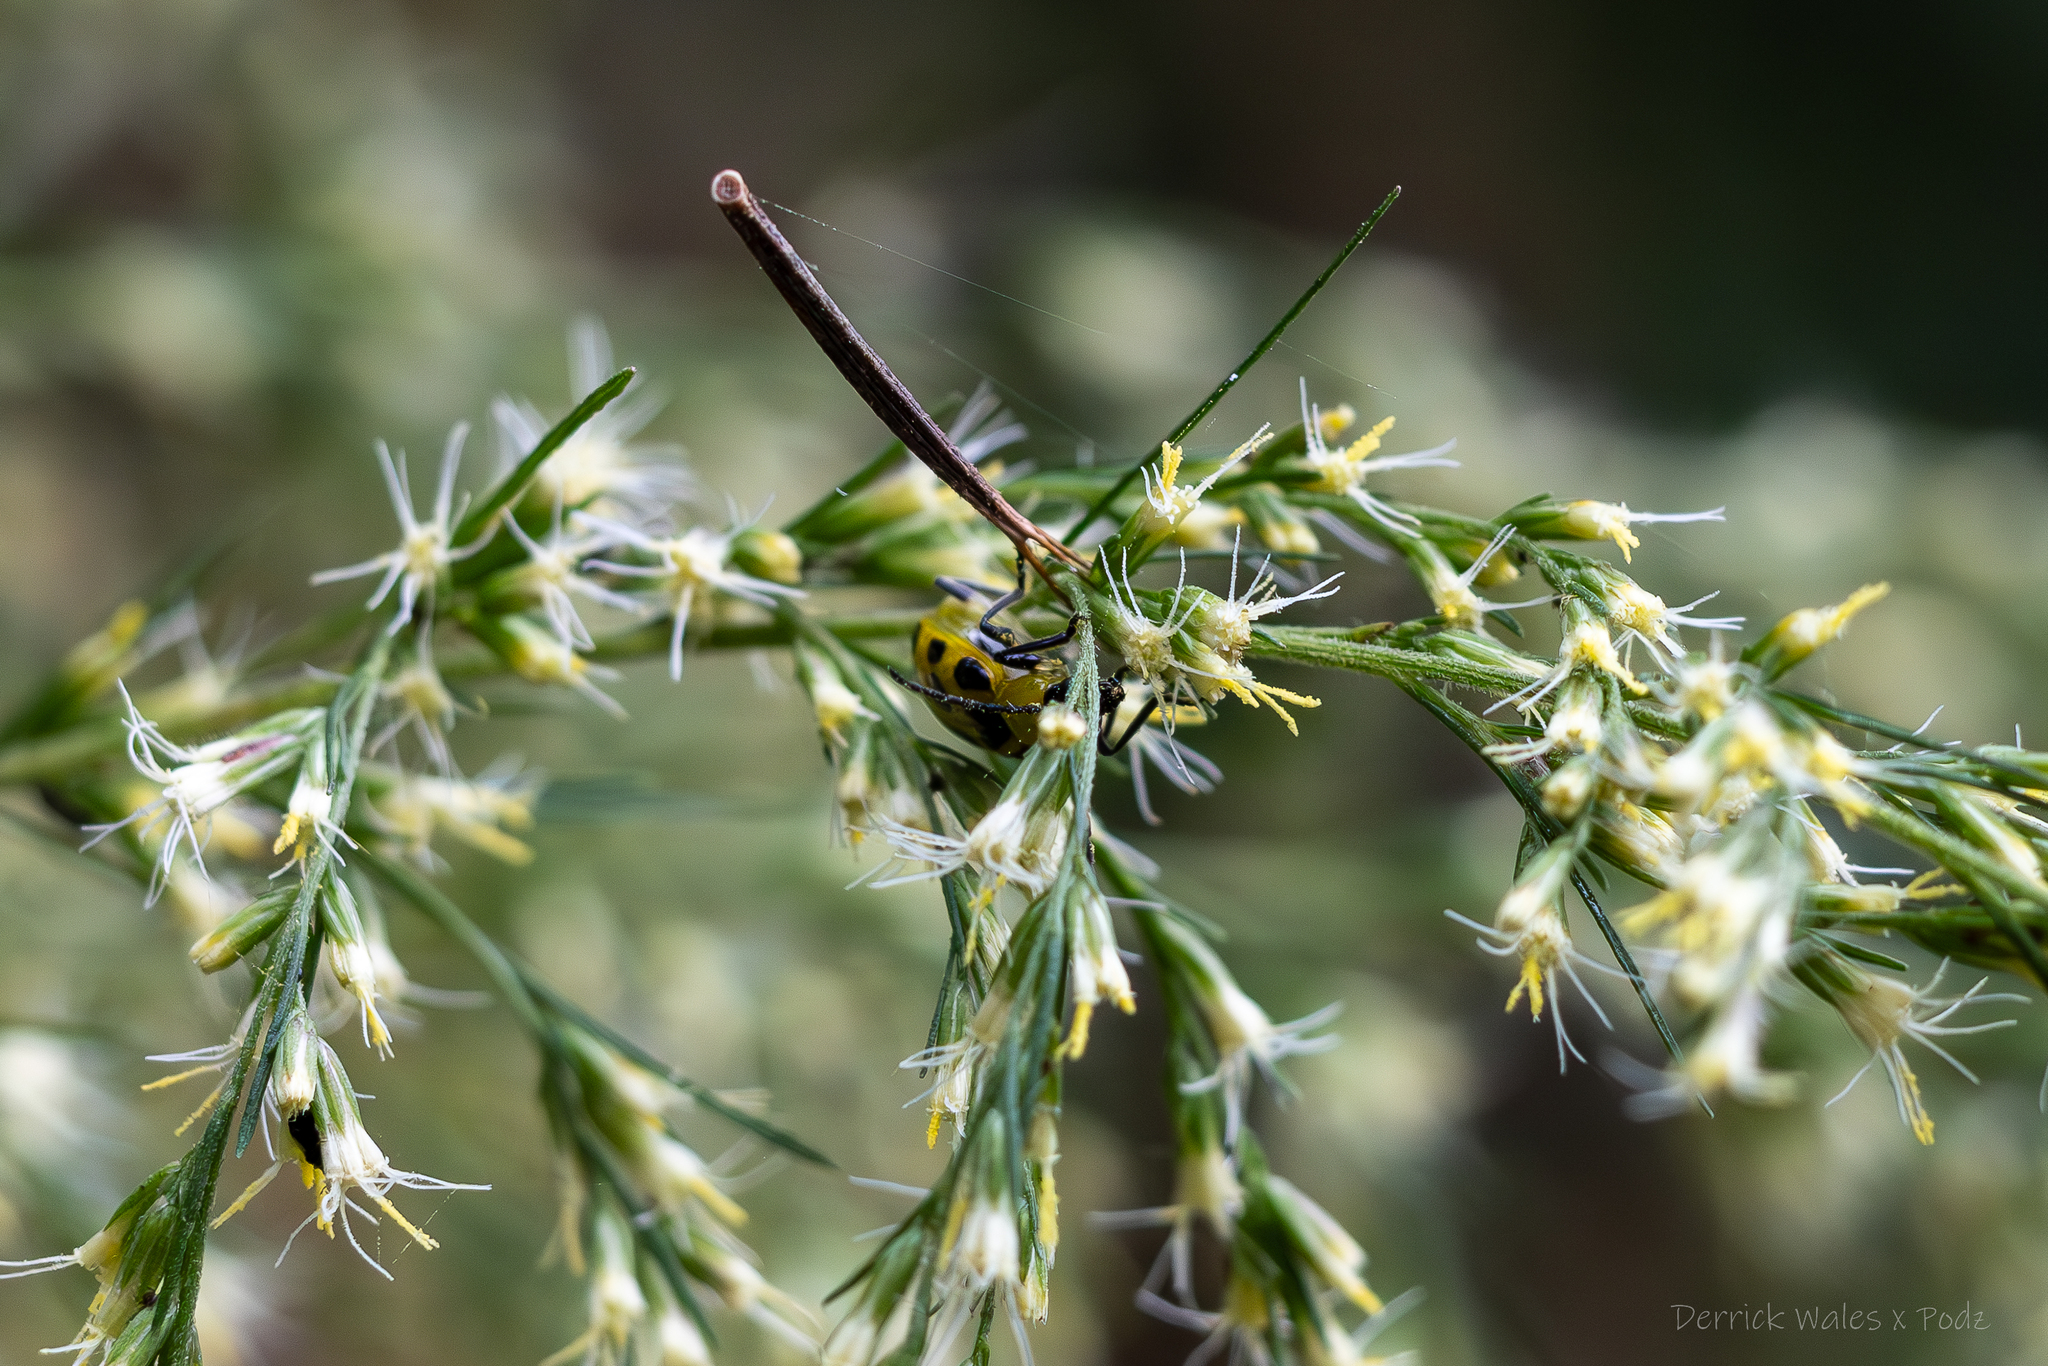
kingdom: Animalia
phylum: Arthropoda
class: Insecta
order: Coleoptera
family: Chrysomelidae
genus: Diabrotica
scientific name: Diabrotica undecimpunctata
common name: Spotted cucumber beetle
